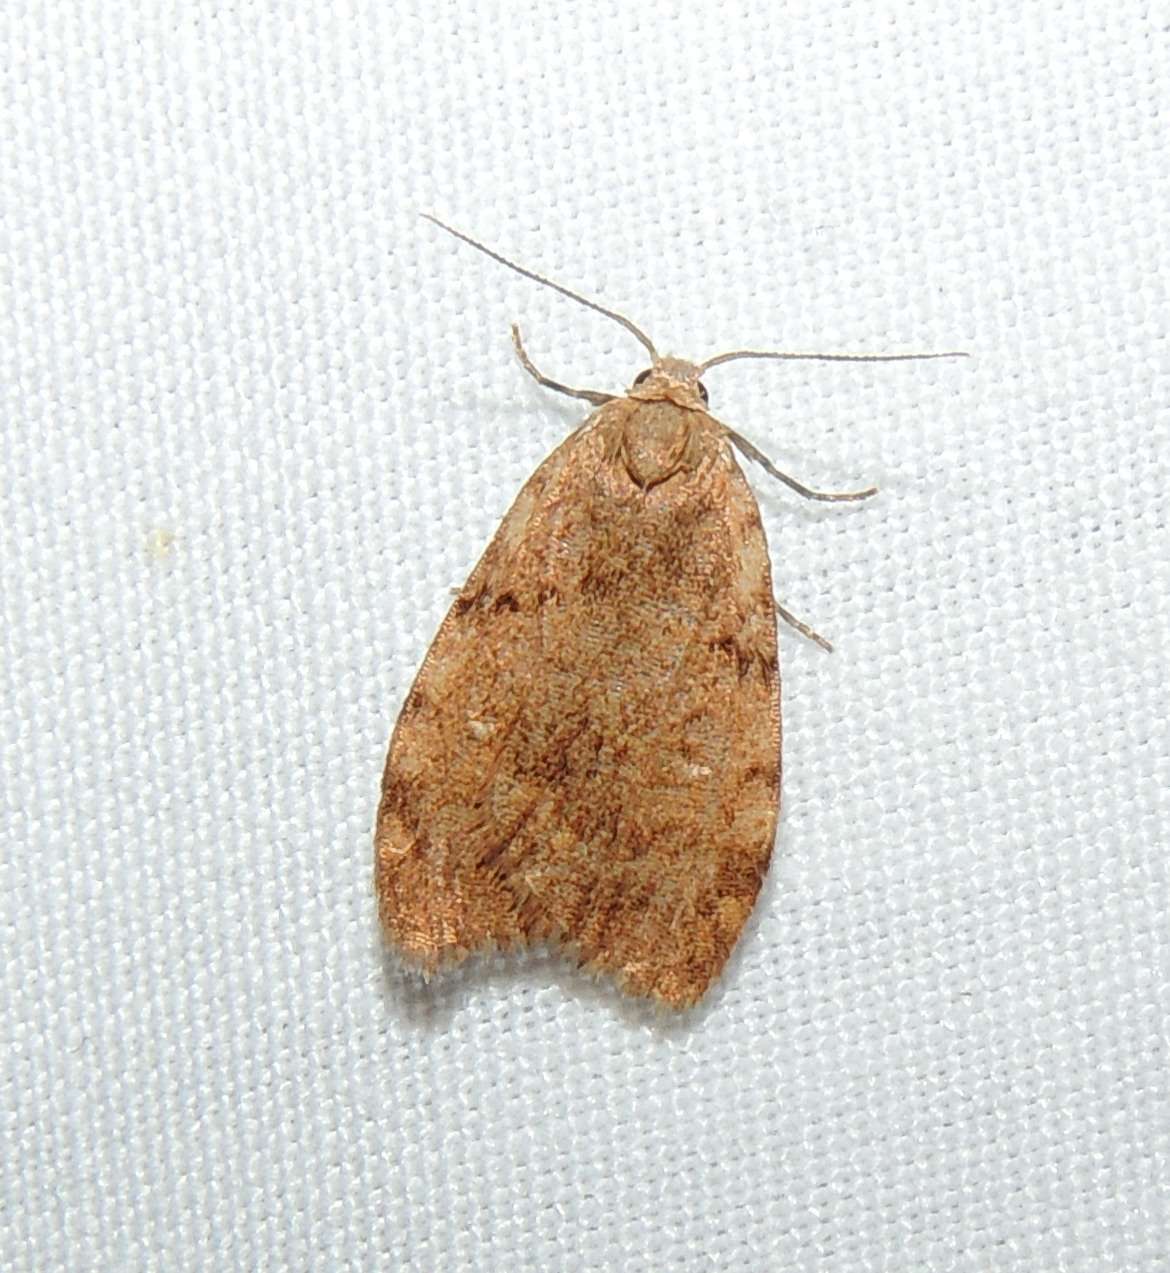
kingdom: Animalia
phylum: Arthropoda
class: Insecta
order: Lepidoptera
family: Erebidae
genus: Damias
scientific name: Damias pelochroa
